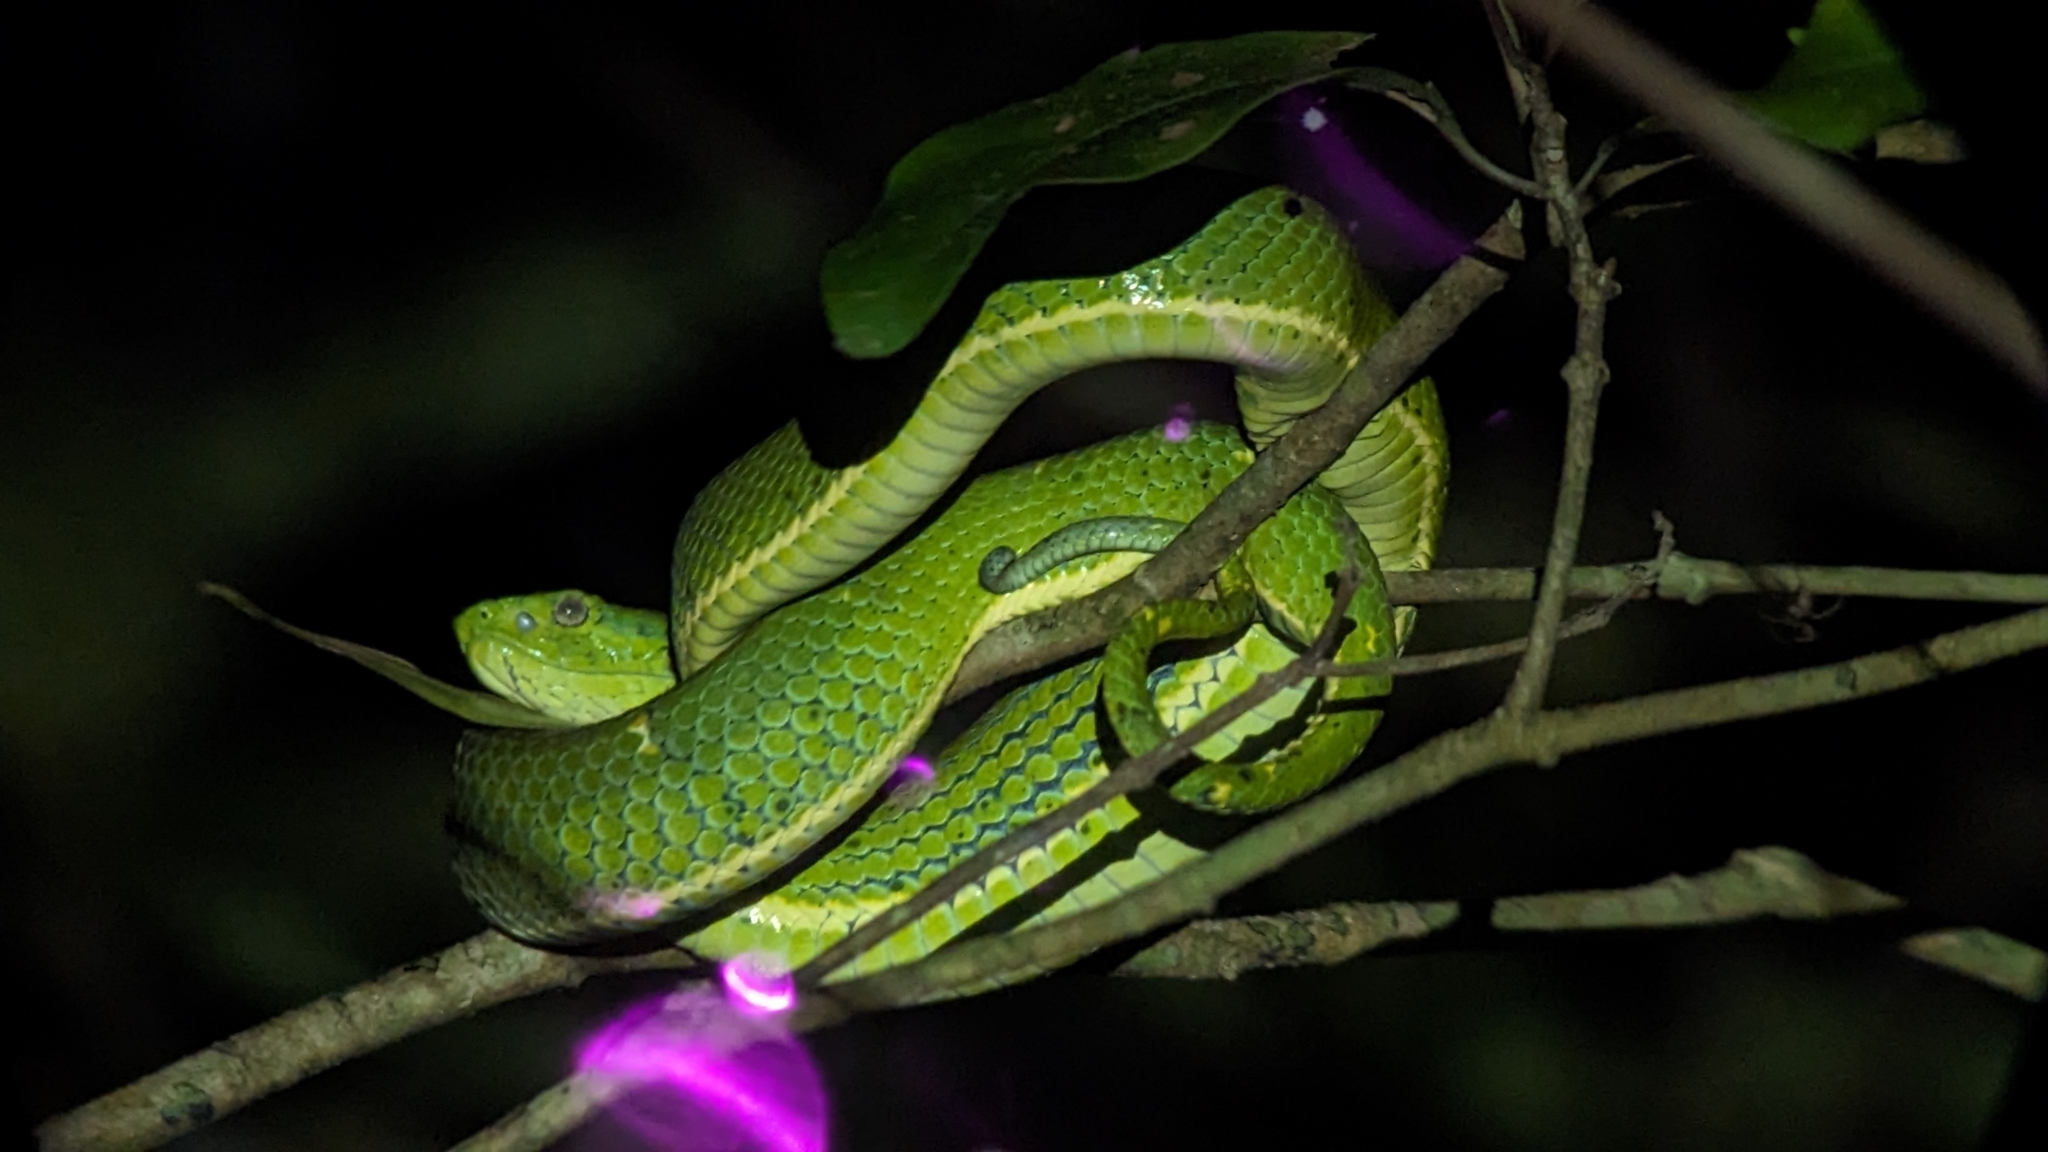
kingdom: Animalia
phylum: Chordata
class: Squamata
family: Viperidae
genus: Bothriechis
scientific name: Bothriechis lateralis
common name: Coffee palm viper
